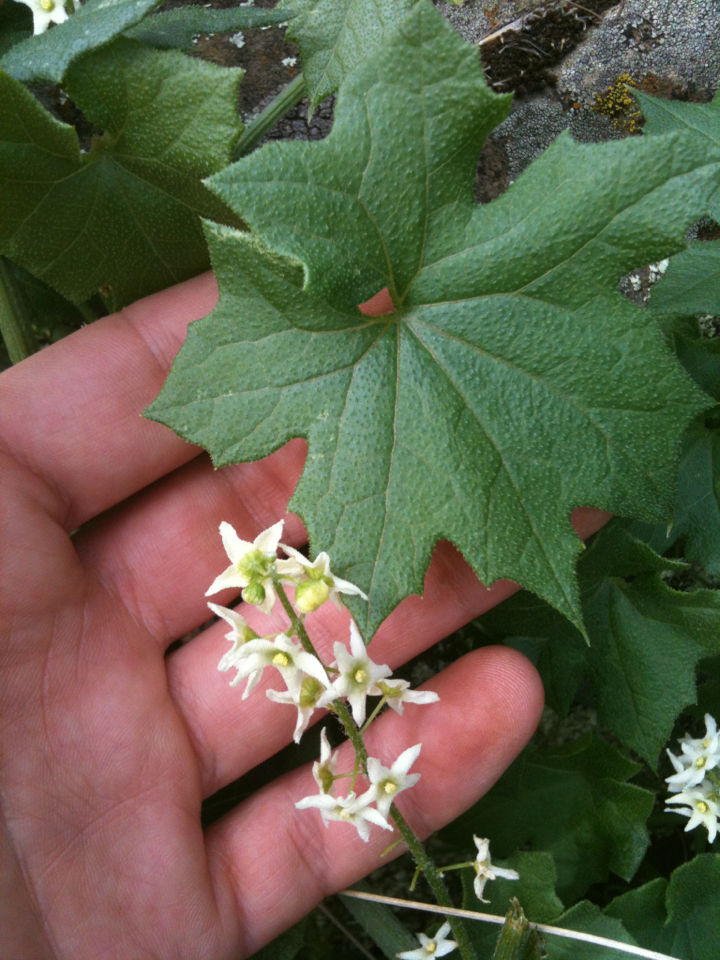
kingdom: Plantae
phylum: Tracheophyta
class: Magnoliopsida
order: Cucurbitales
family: Cucurbitaceae
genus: Marah
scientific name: Marah fabacea
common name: California manroot
